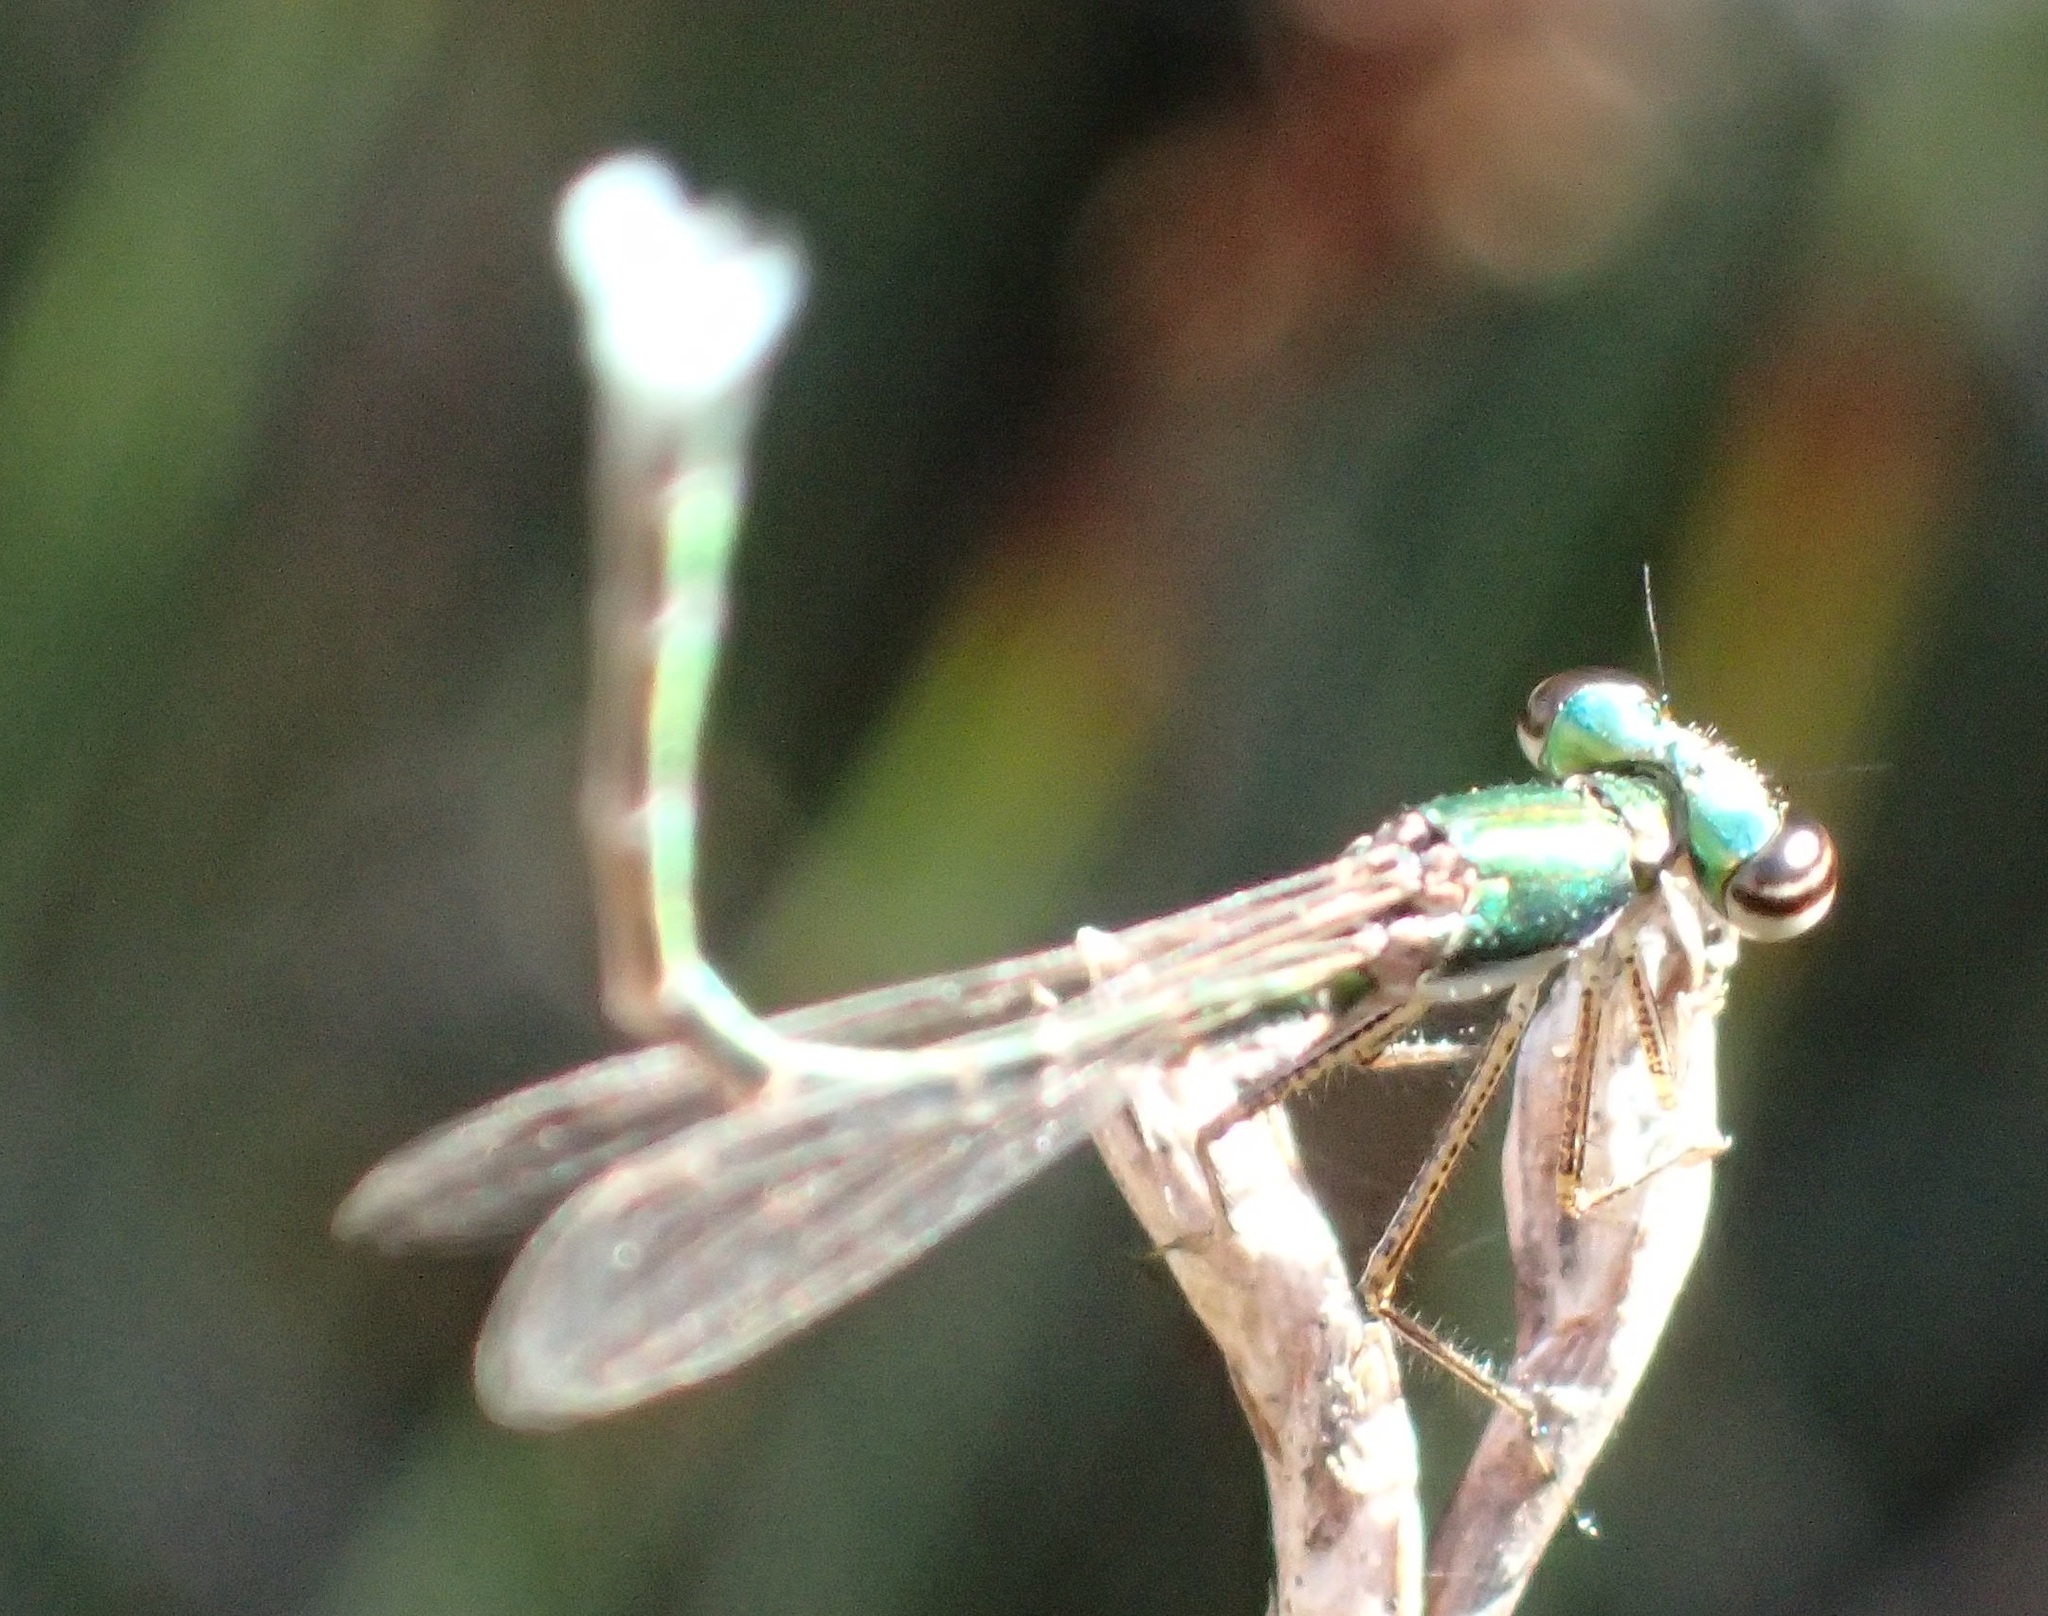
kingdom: Animalia
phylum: Arthropoda
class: Insecta
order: Odonata
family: Hemiphlebiidae
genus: Hemiphlebia
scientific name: Hemiphlebia mirabilis
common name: Ancient greenling
